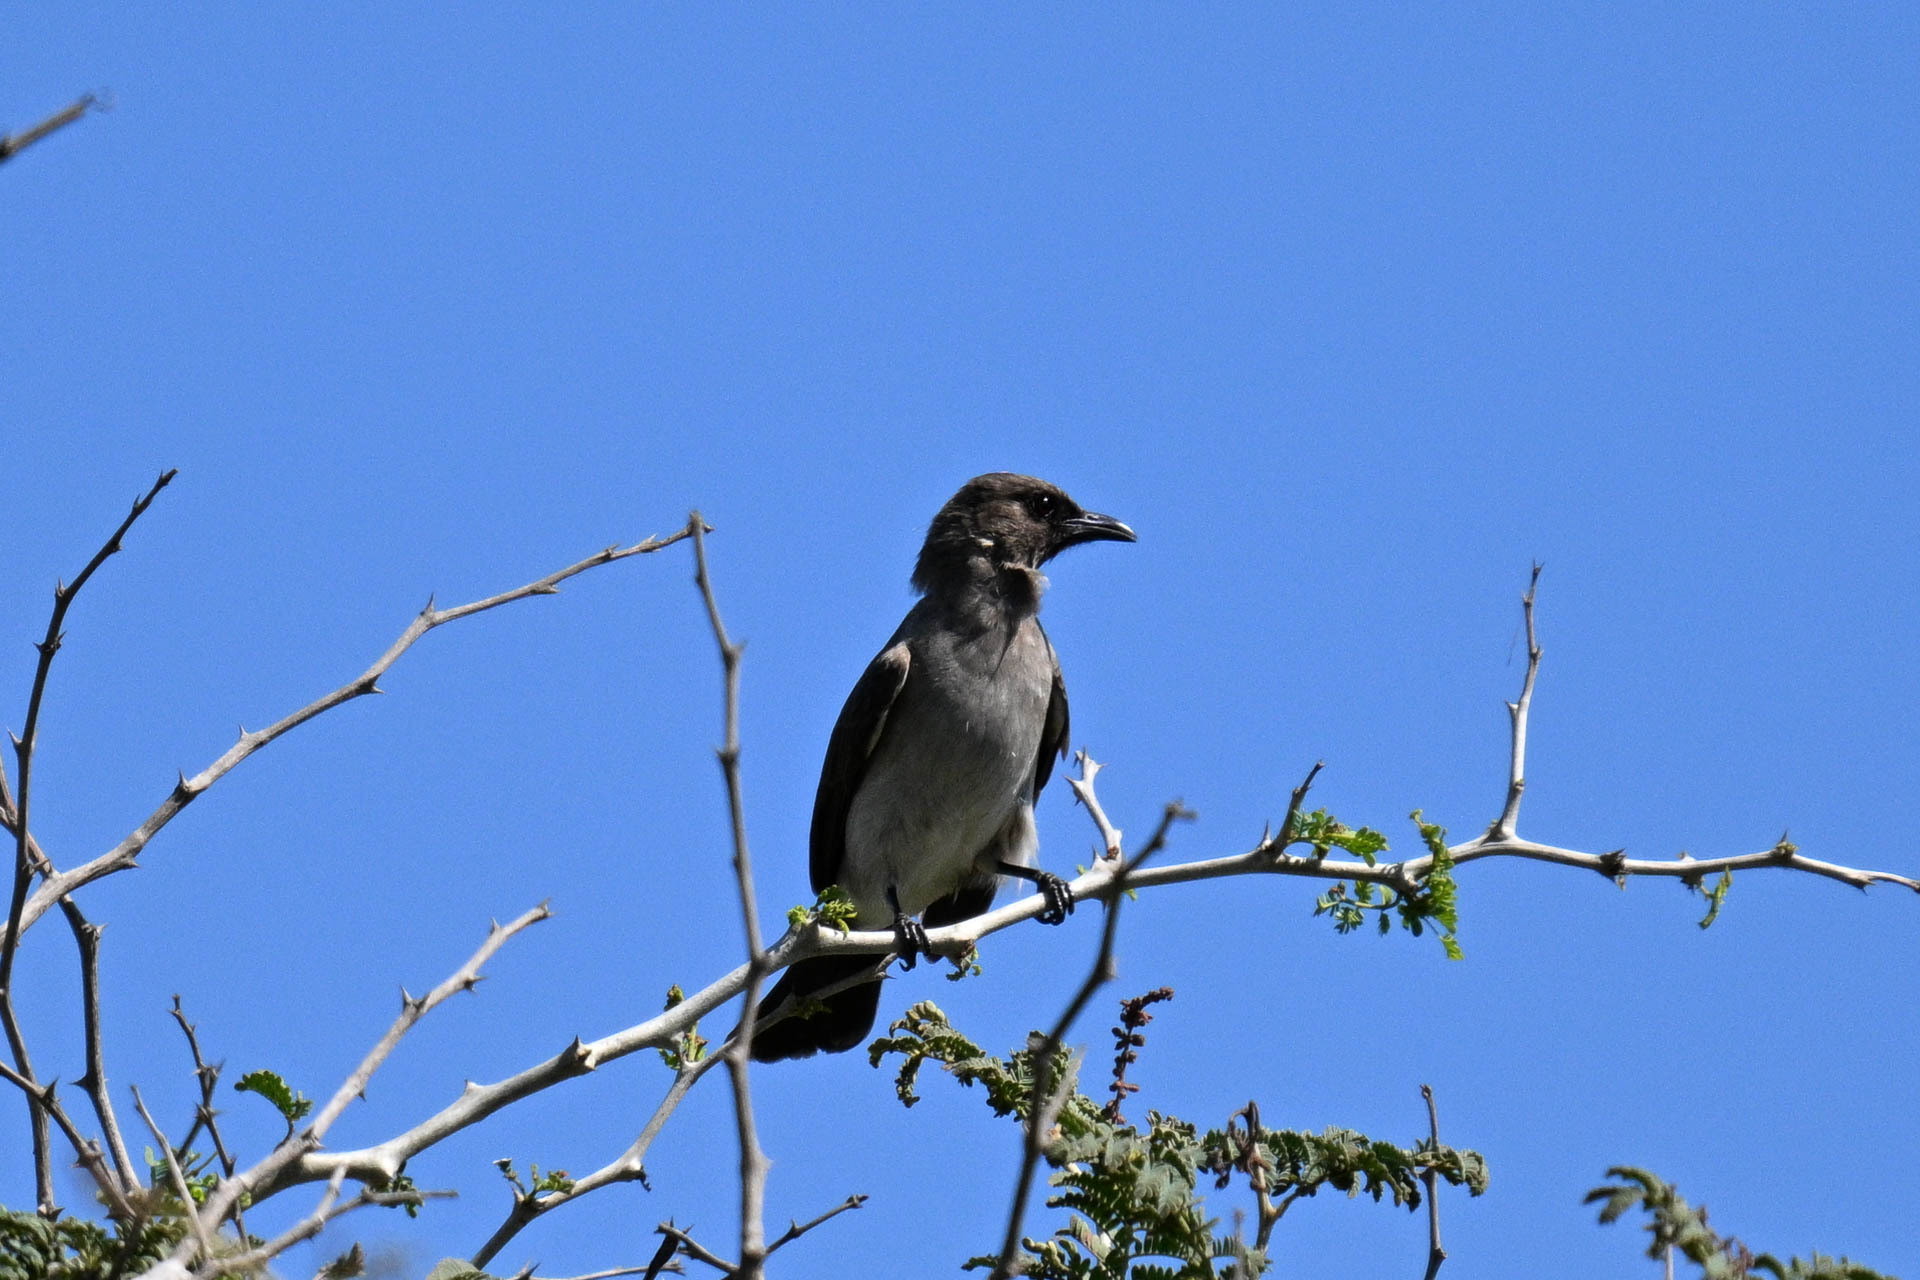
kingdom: Animalia
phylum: Chordata
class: Aves
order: Passeriformes
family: Pycnonotidae
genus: Pycnonotus
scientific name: Pycnonotus barbatus
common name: Common bulbul
